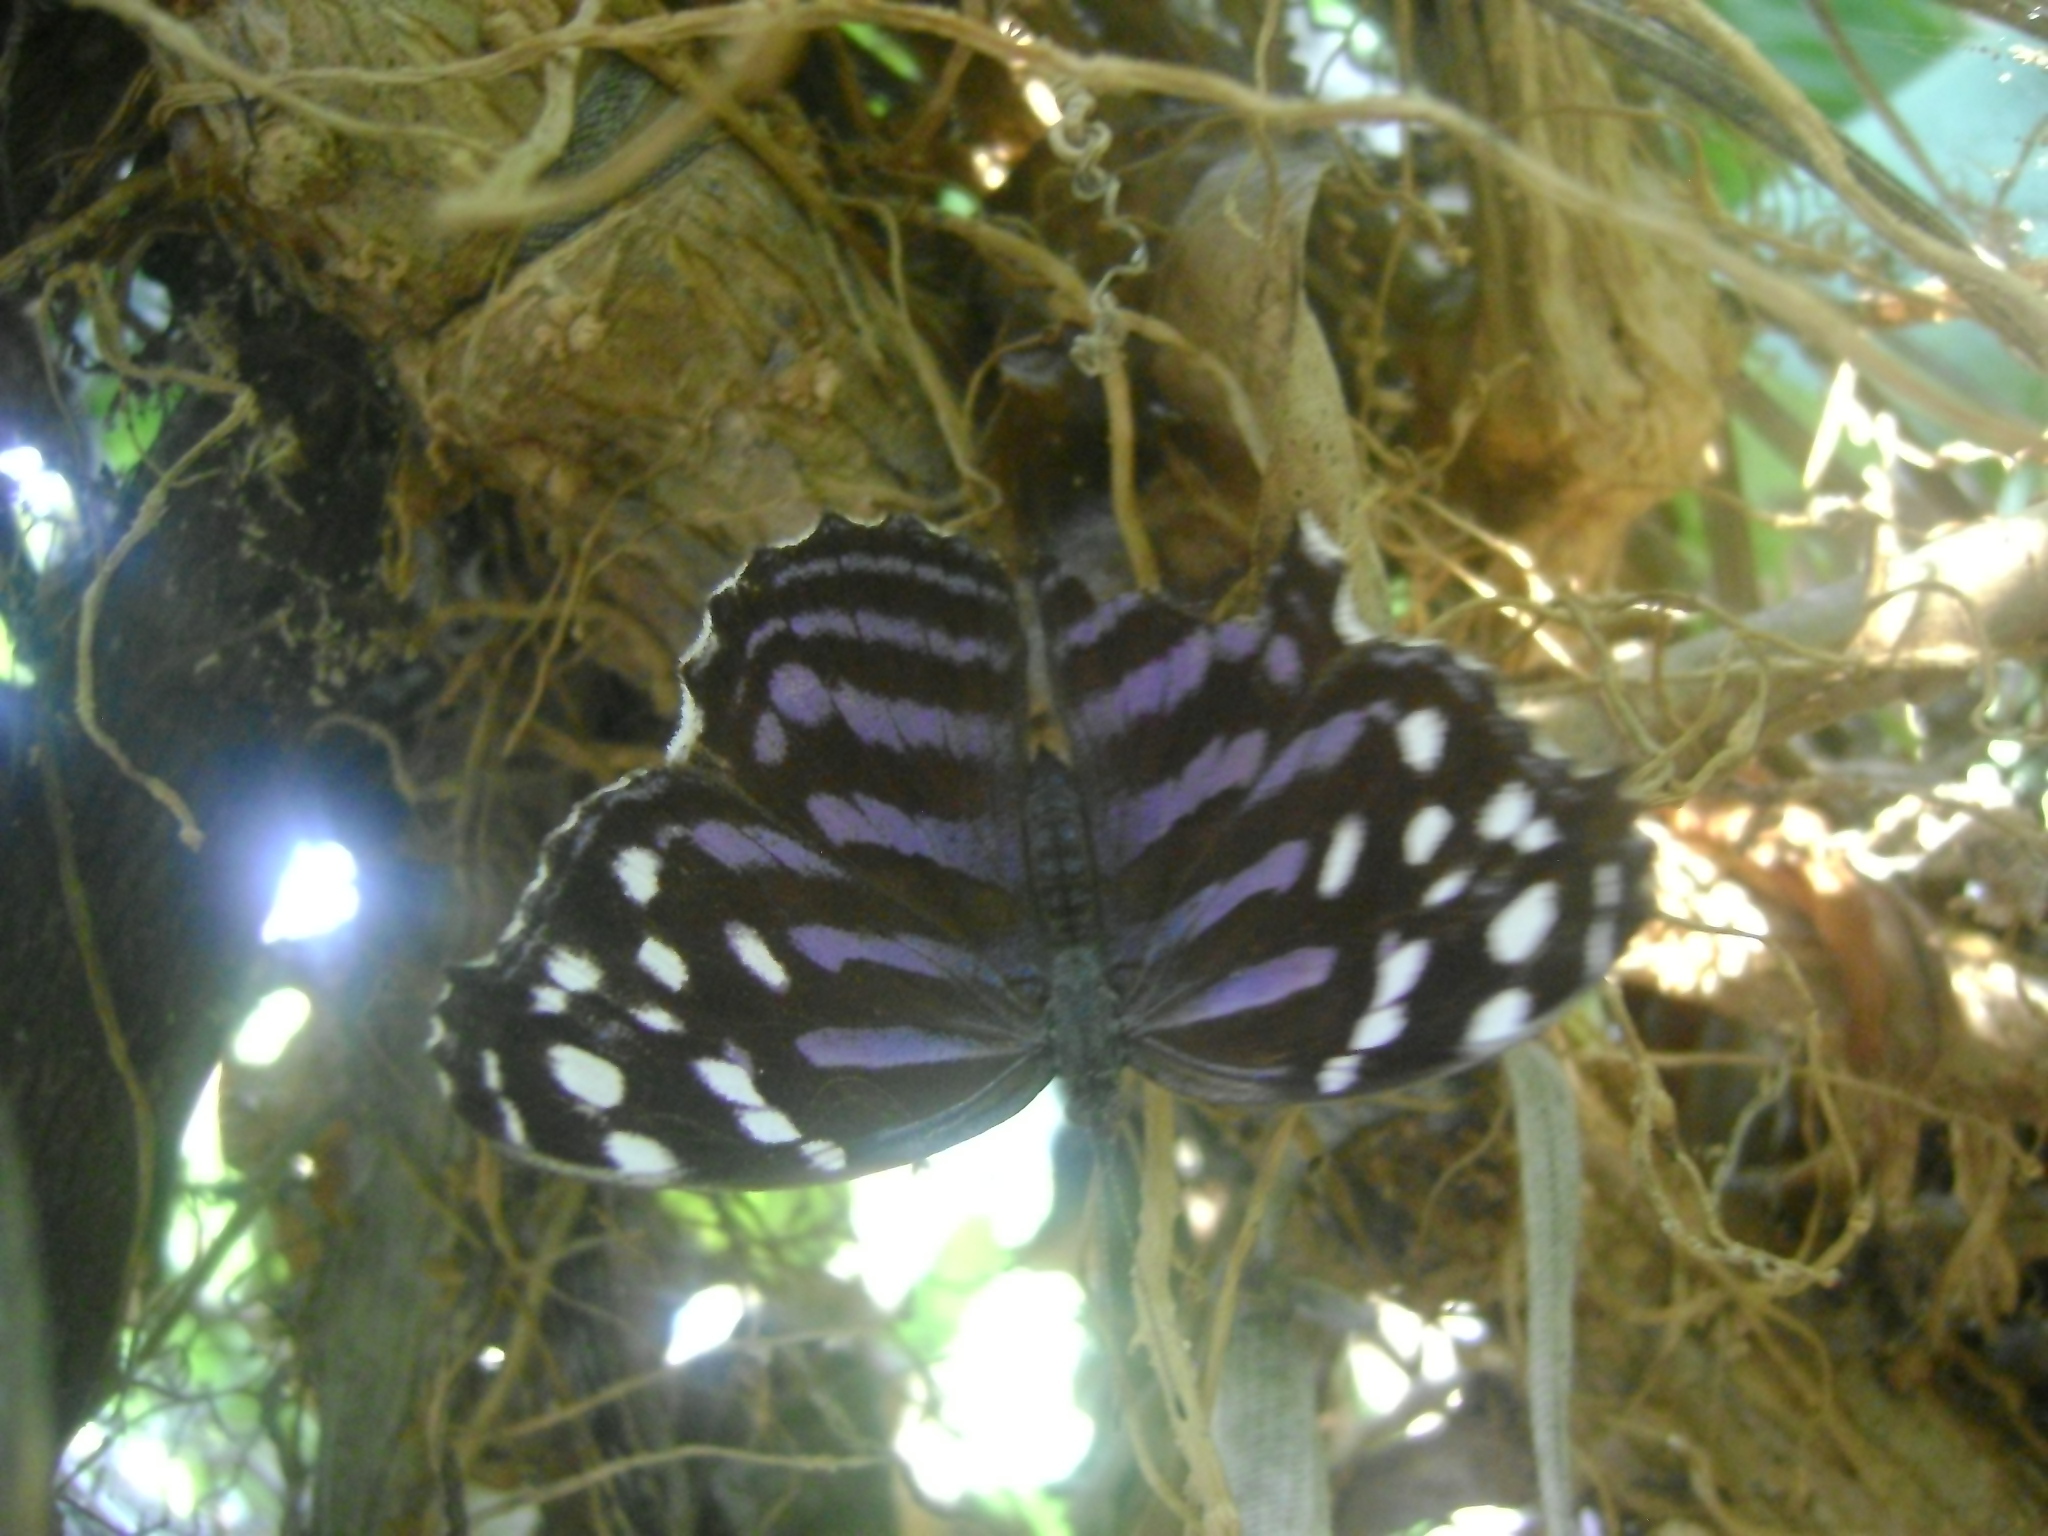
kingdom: Animalia
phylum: Arthropoda
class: Insecta
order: Lepidoptera
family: Nymphalidae
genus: Myscelia
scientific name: Myscelia ethusa
